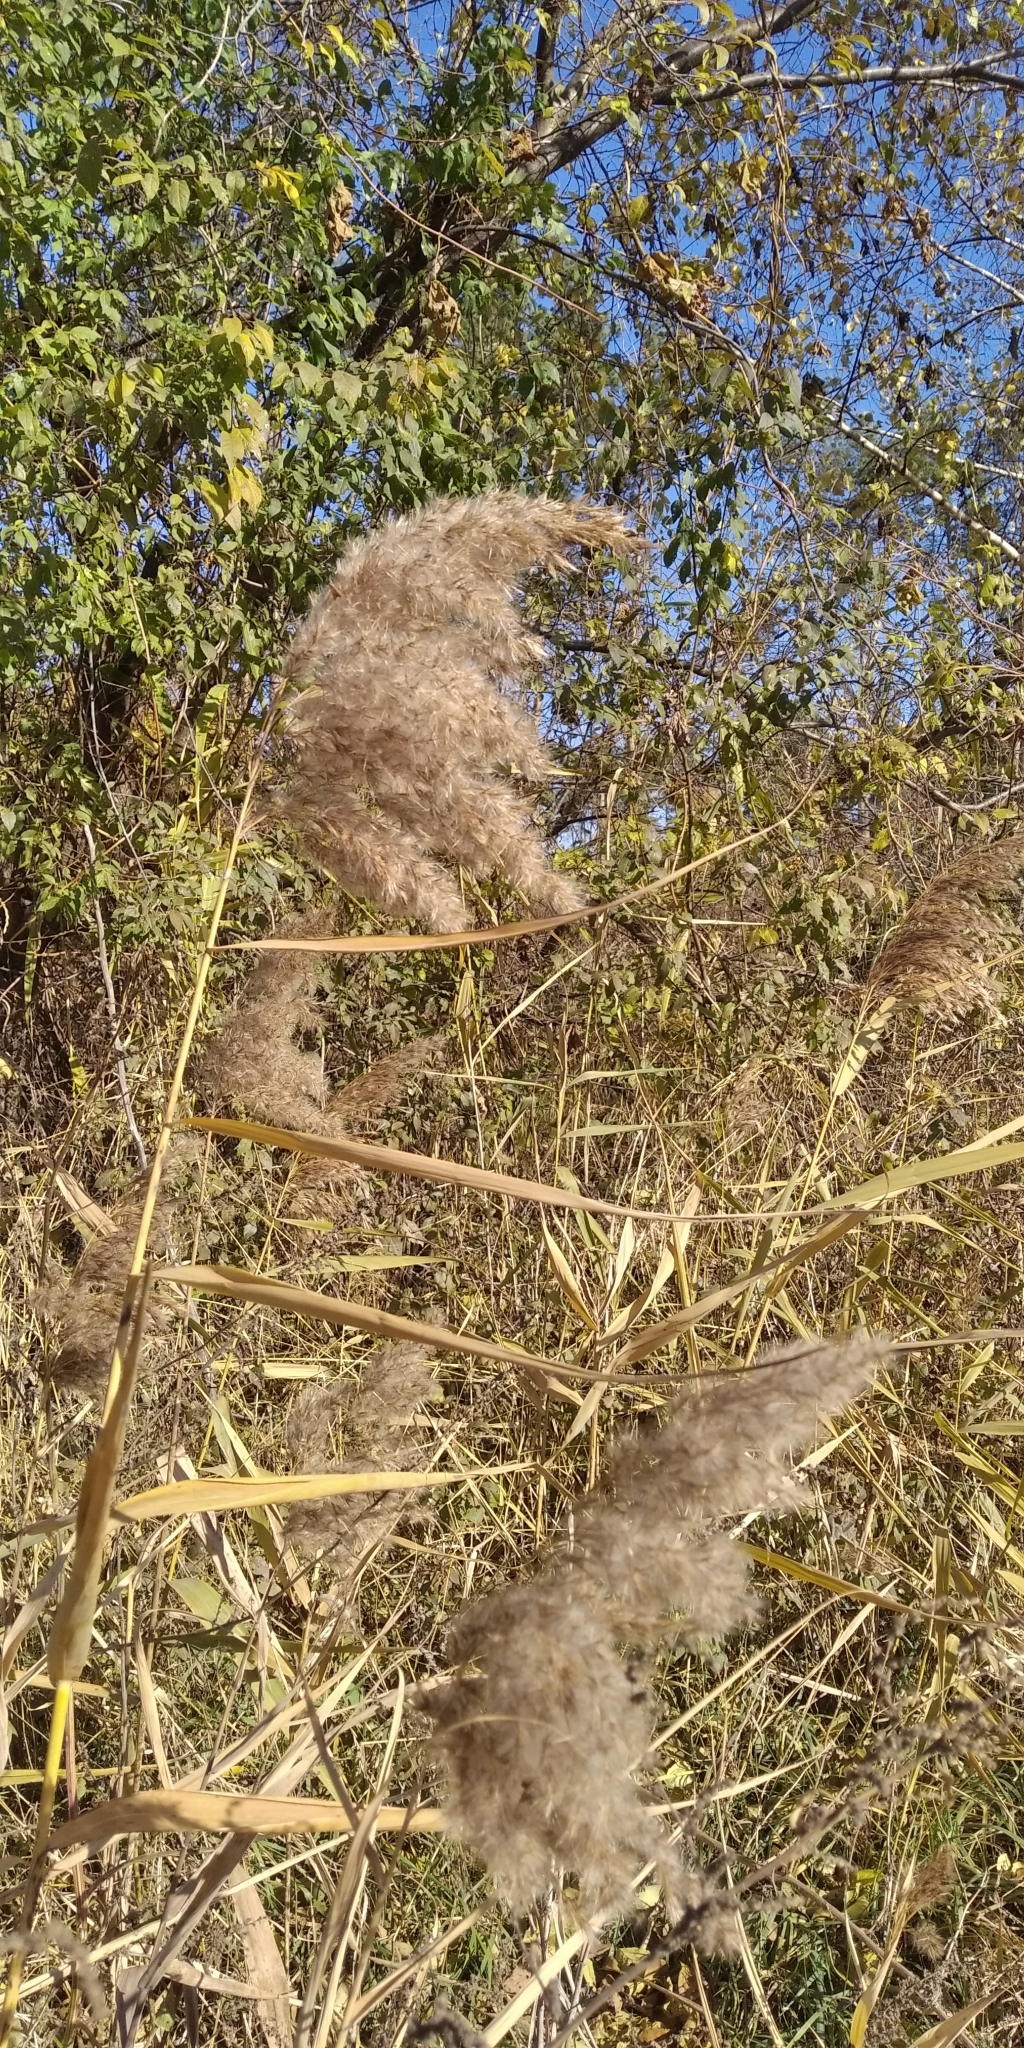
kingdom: Plantae
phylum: Tracheophyta
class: Liliopsida
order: Poales
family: Poaceae
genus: Phragmites
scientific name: Phragmites australis
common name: Common reed
